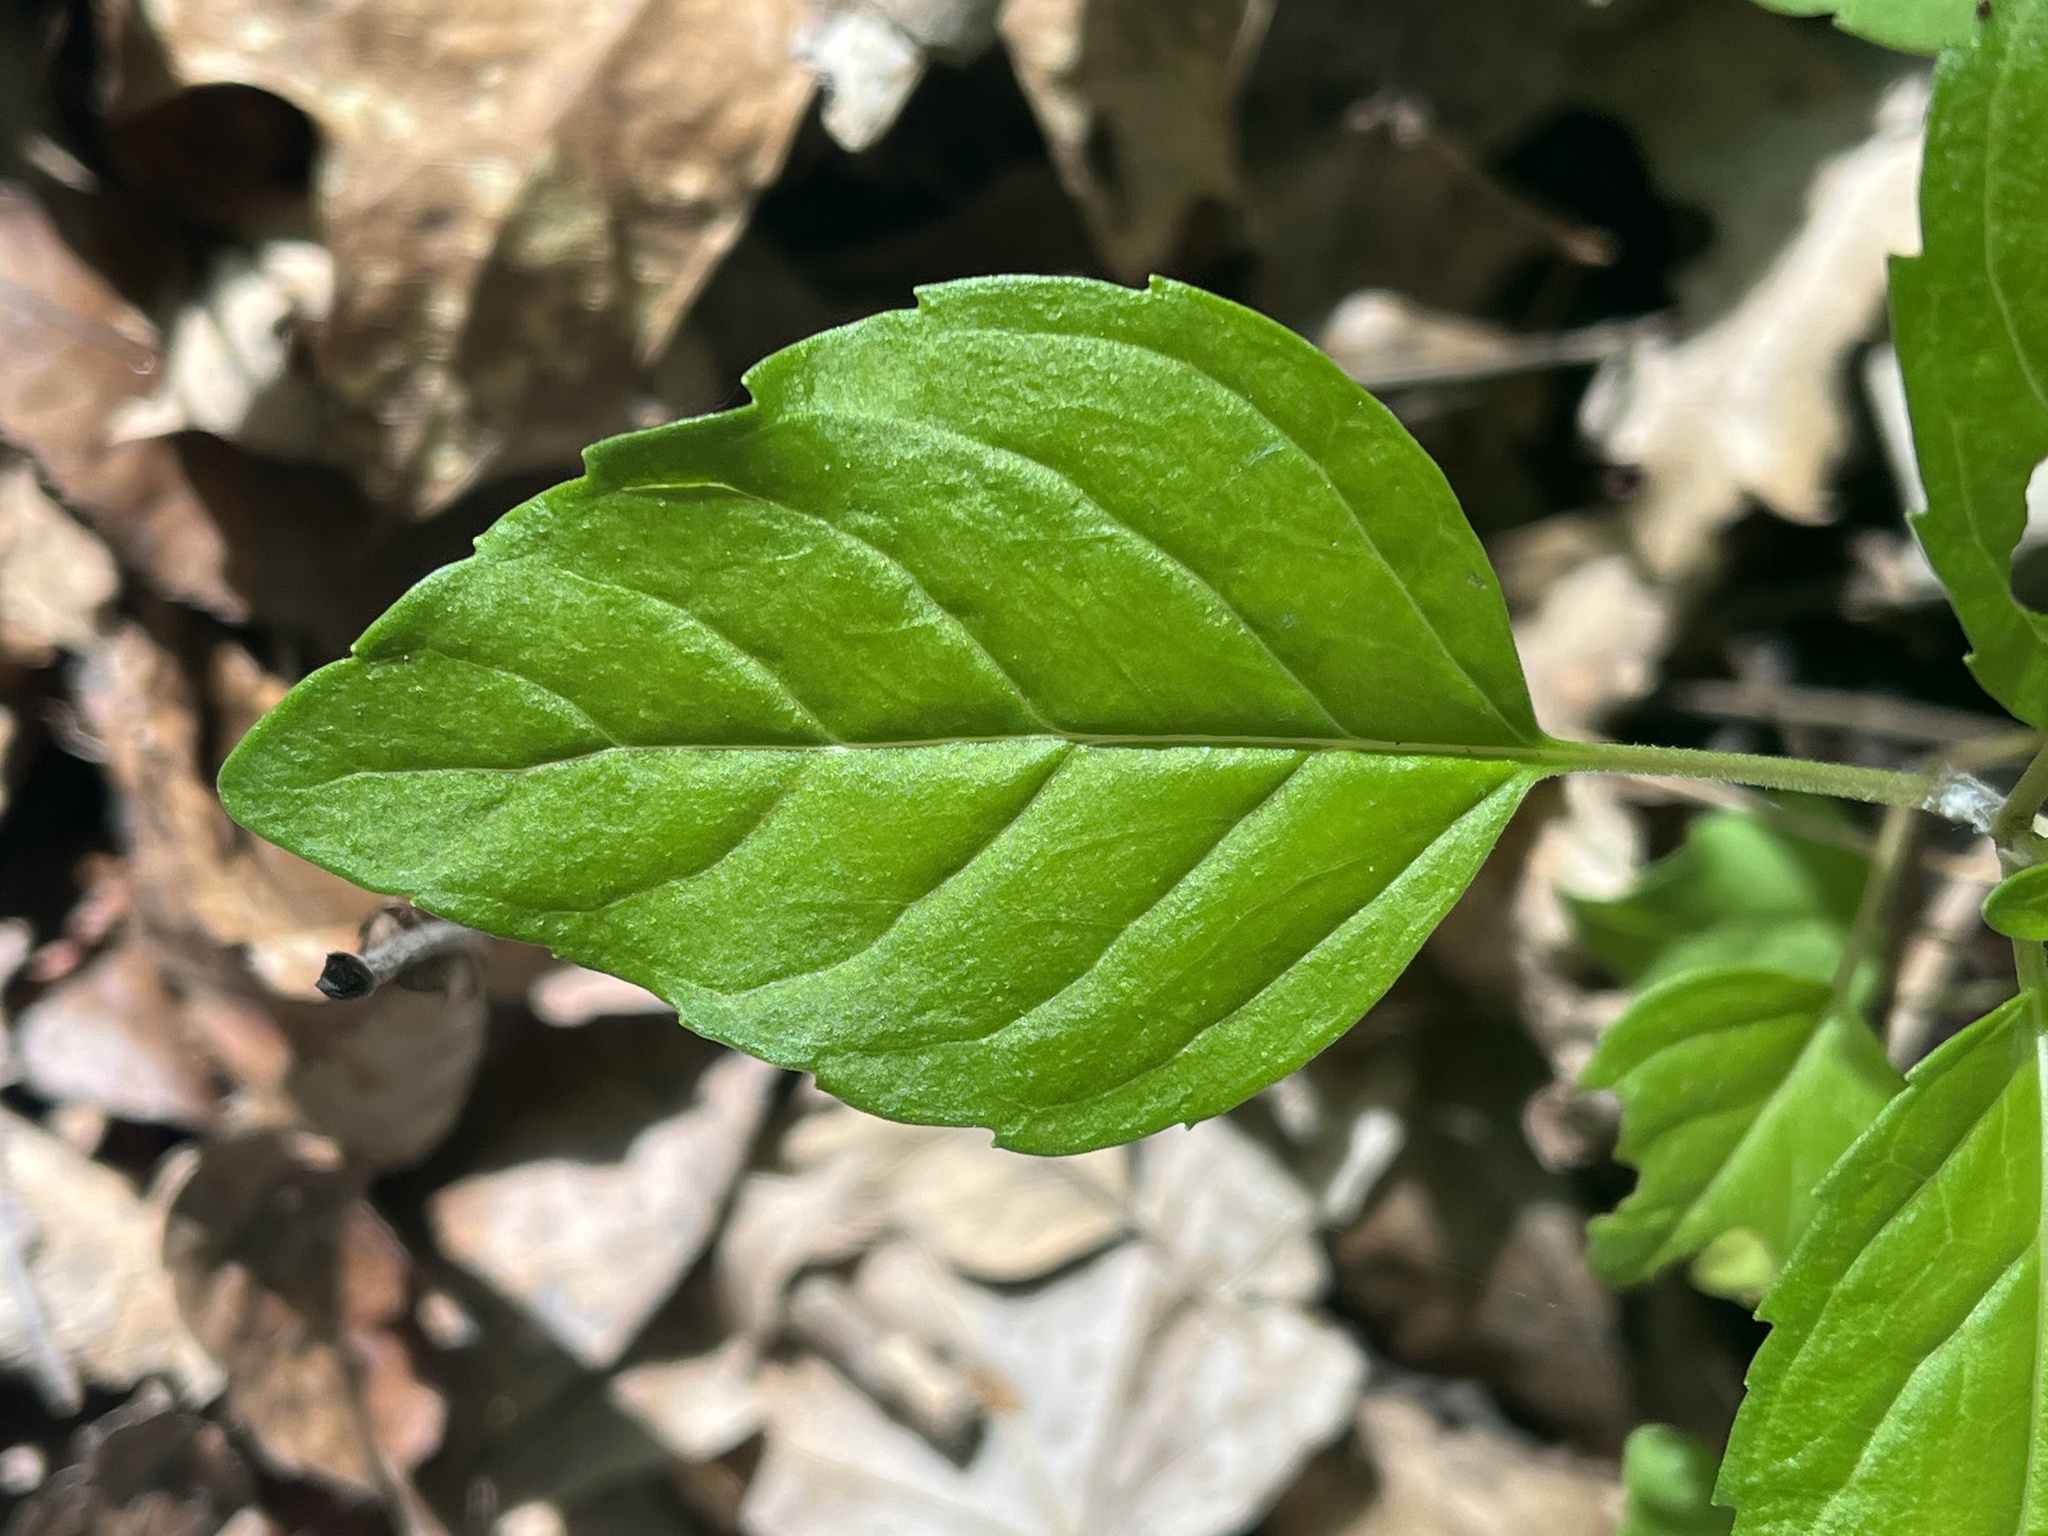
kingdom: Plantae
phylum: Tracheophyta
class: Magnoliopsida
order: Lamiales
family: Lamiaceae
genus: Blephilia
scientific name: Blephilia subnuda
